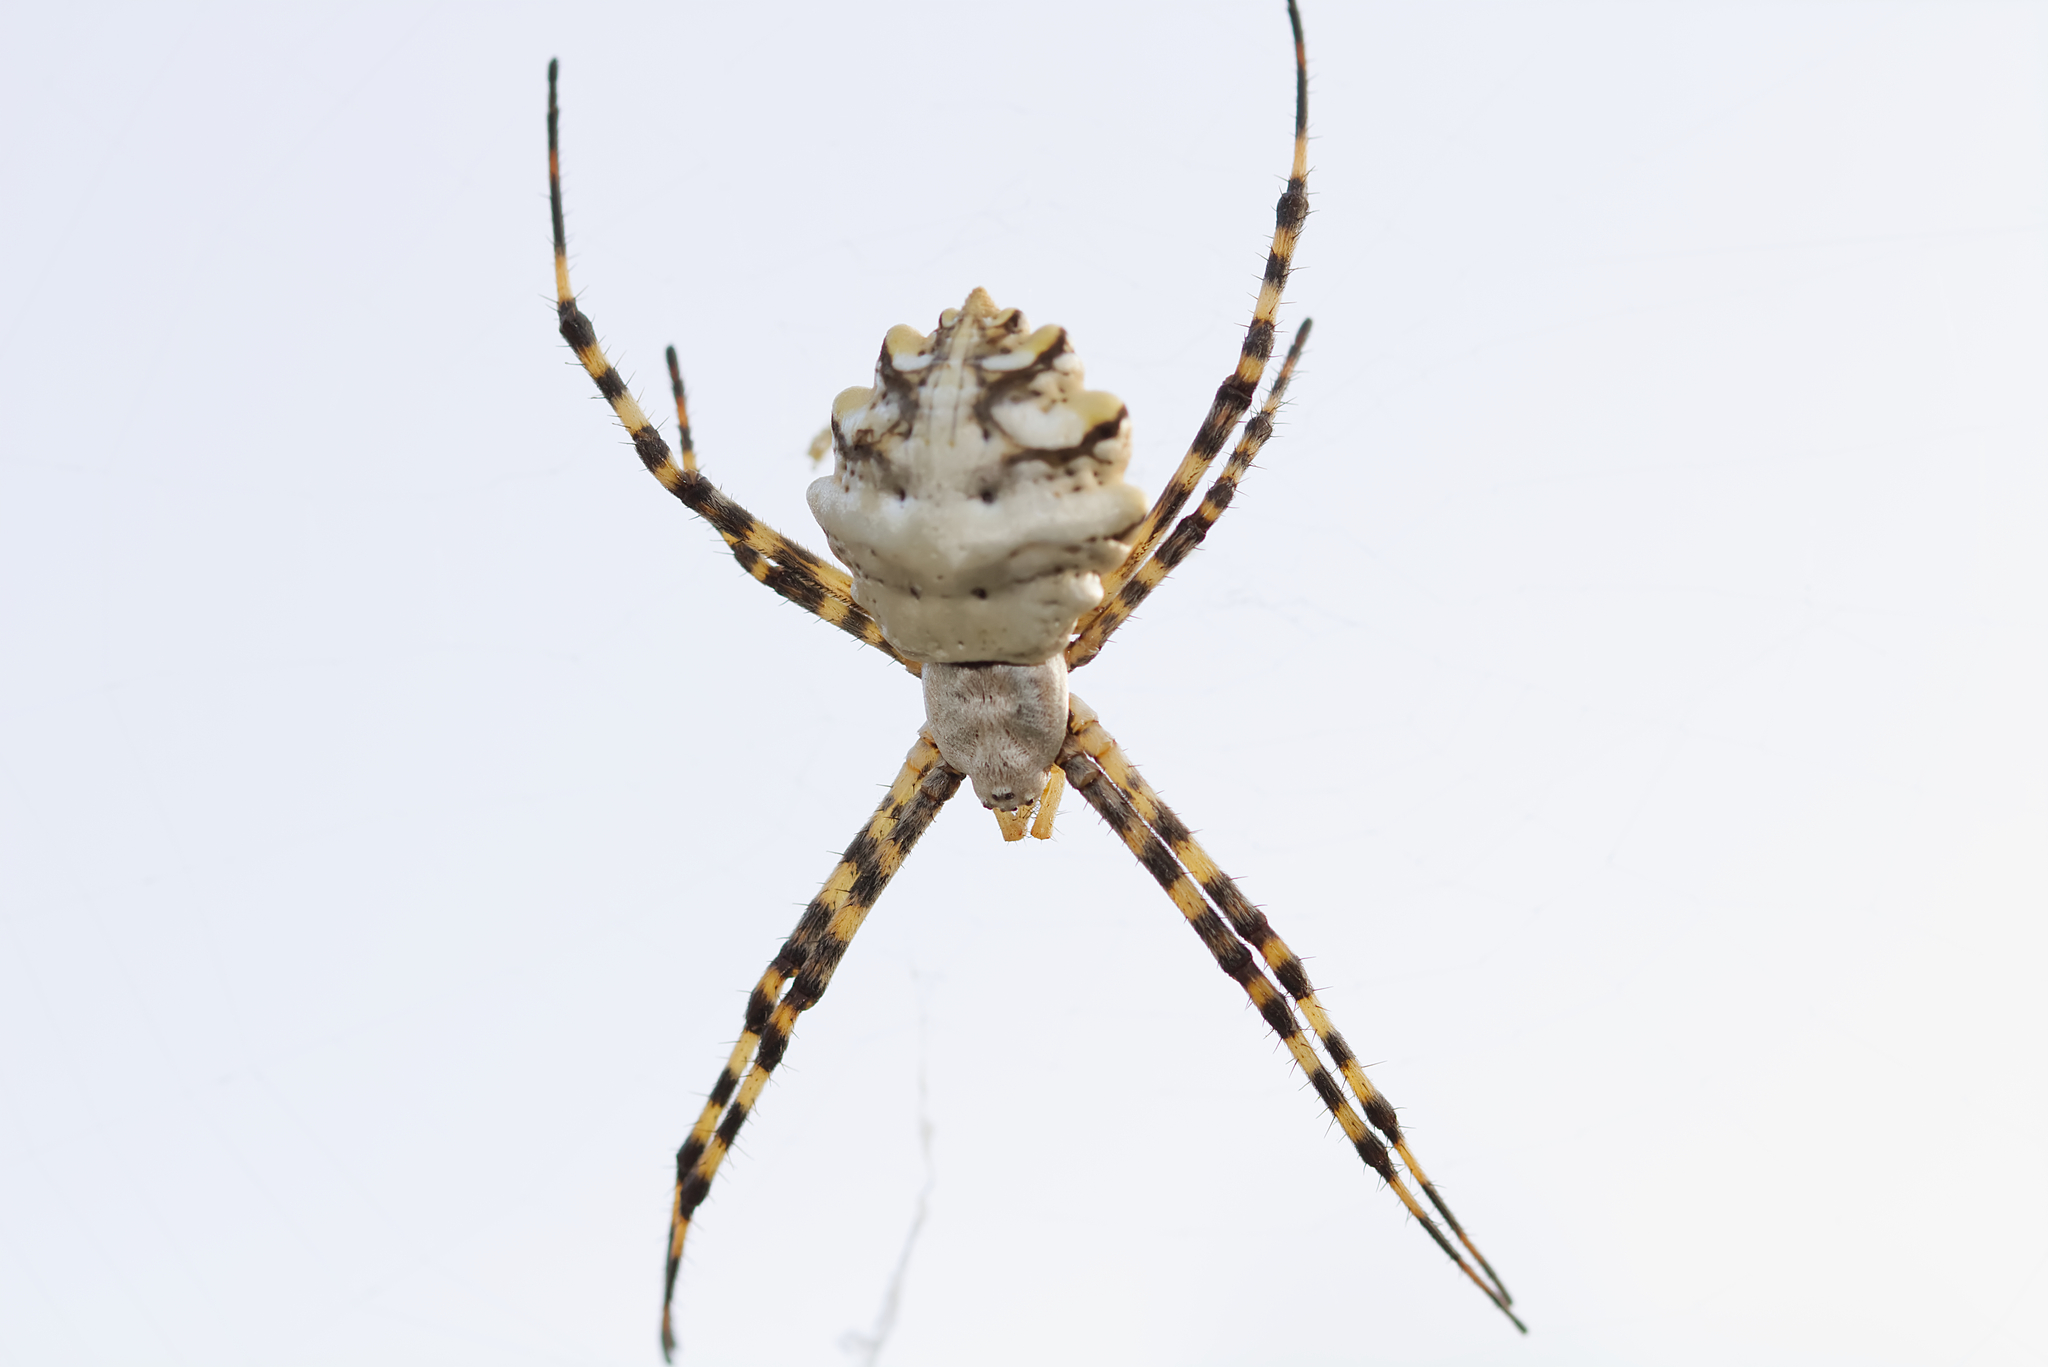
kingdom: Animalia
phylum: Arthropoda
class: Arachnida
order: Araneae
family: Araneidae
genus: Argiope
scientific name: Argiope lobata
